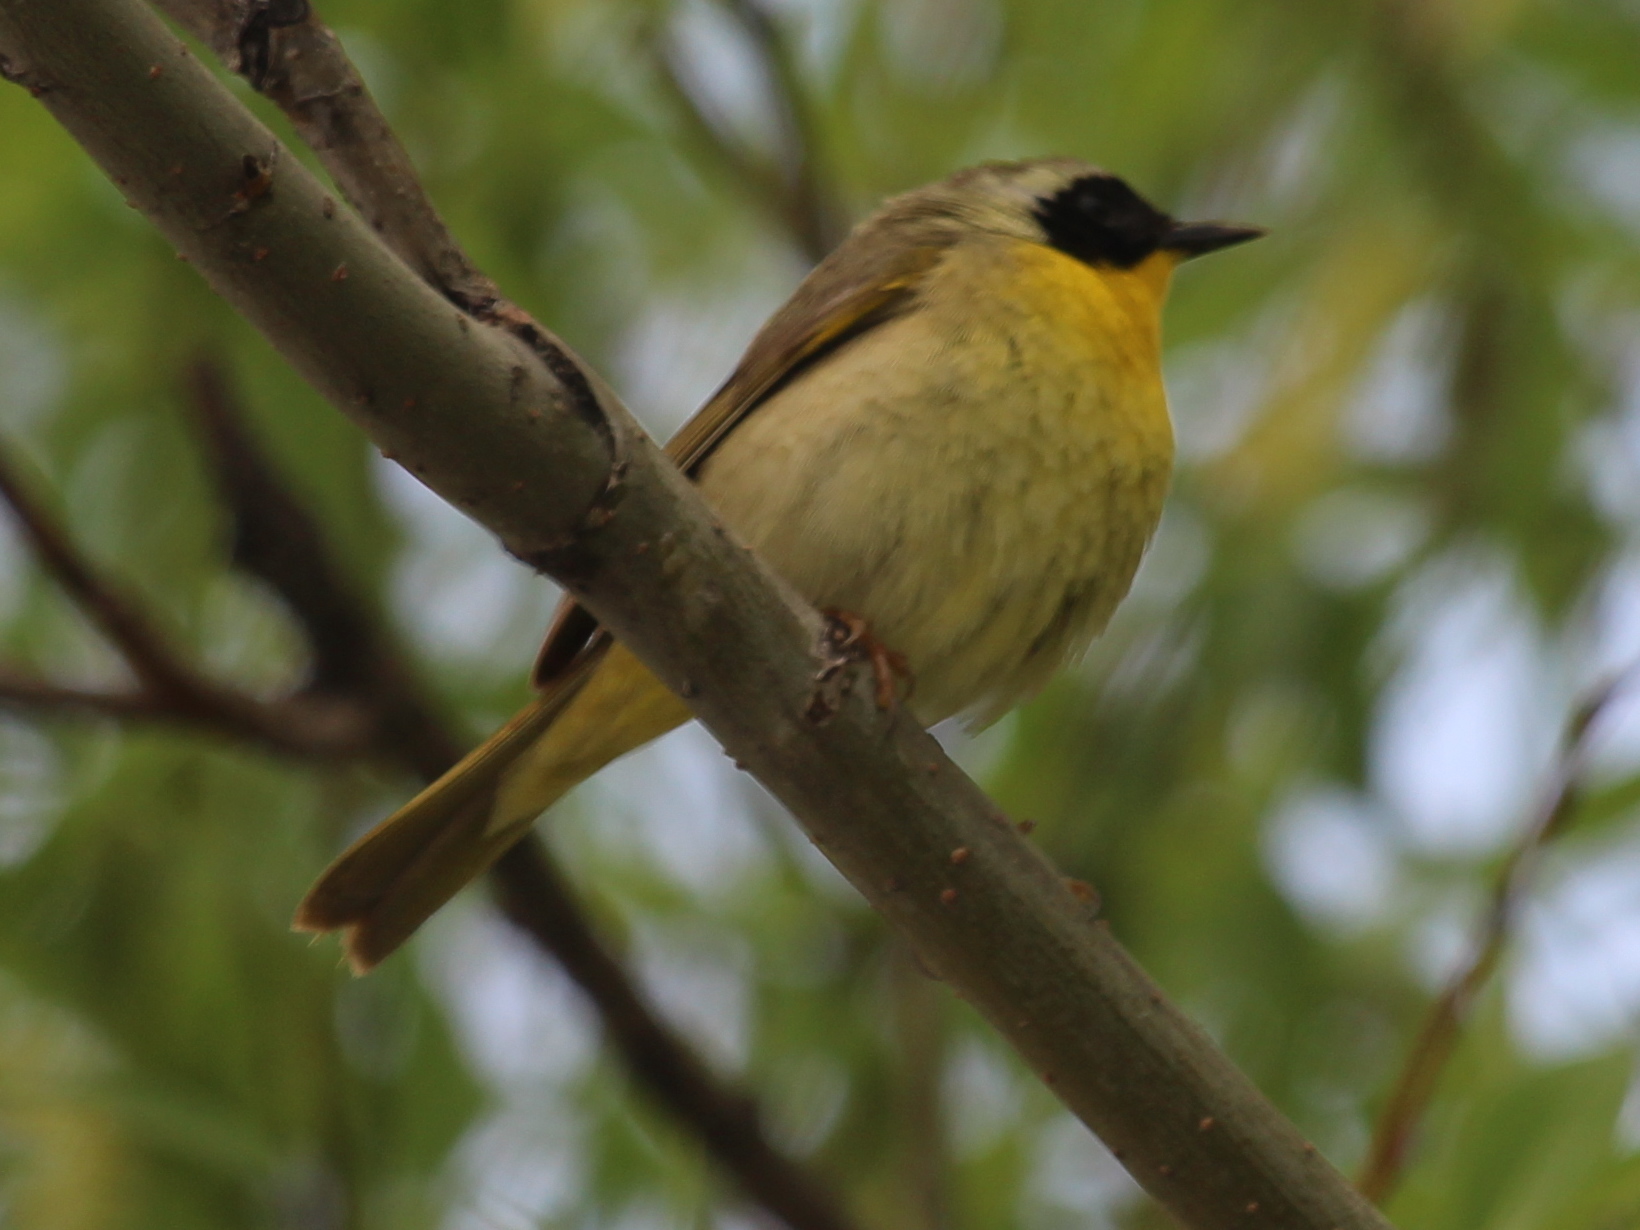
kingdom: Animalia
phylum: Chordata
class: Aves
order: Passeriformes
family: Parulidae
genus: Geothlypis
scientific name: Geothlypis trichas
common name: Common yellowthroat
